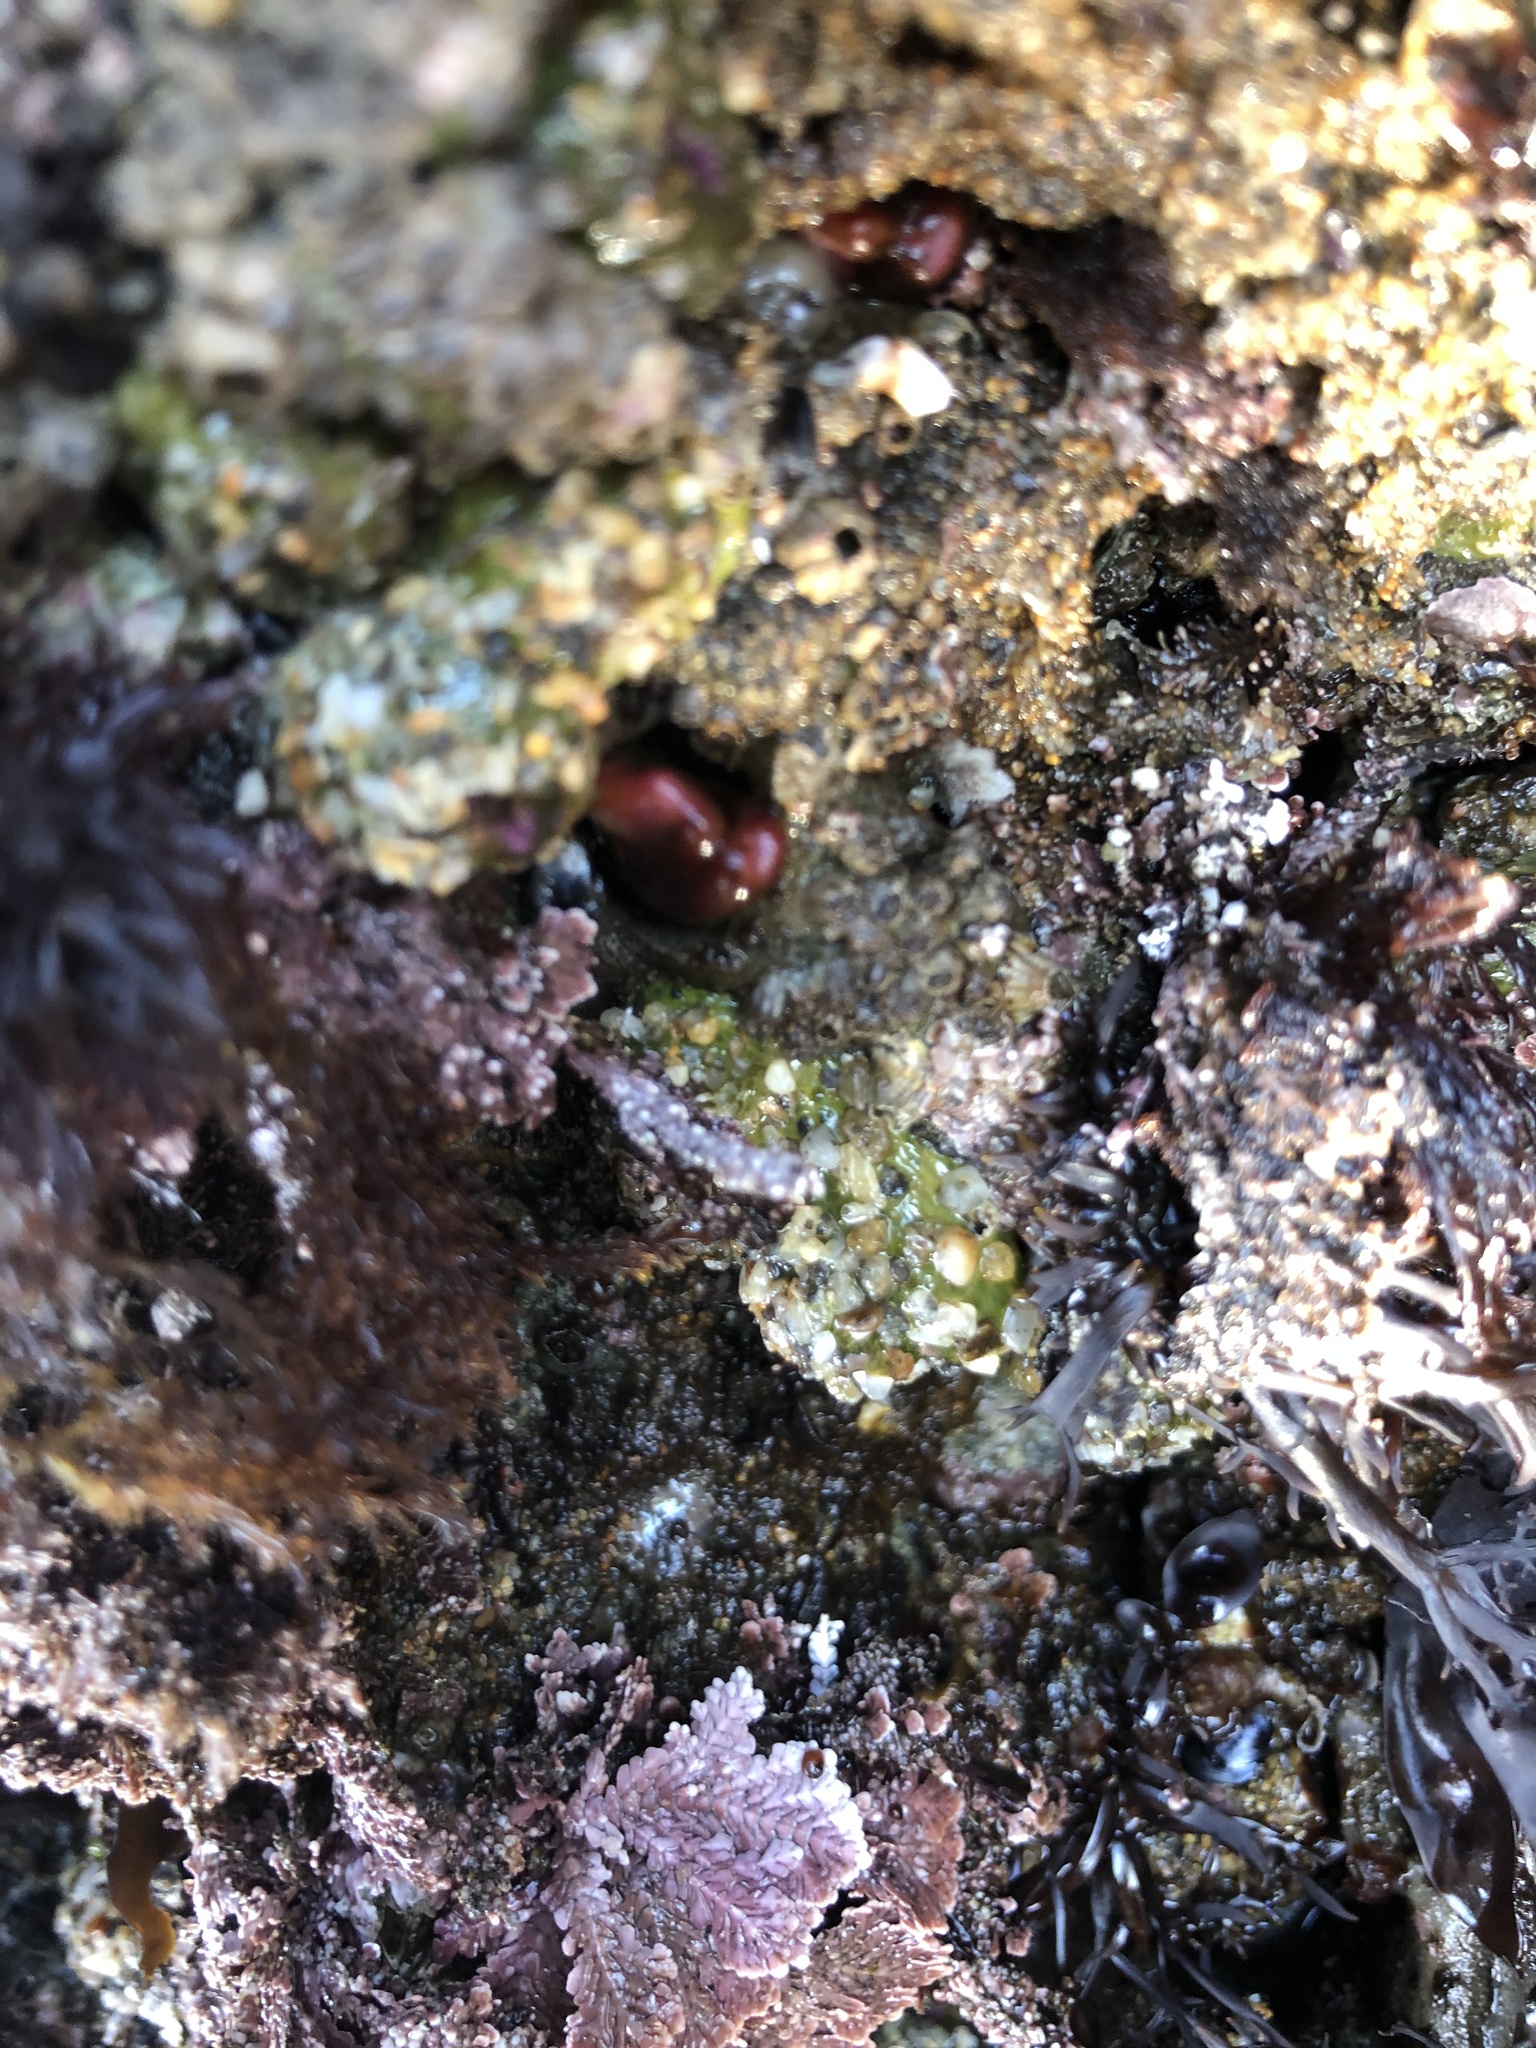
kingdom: Animalia
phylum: Mollusca
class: Bivalvia
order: Adapedonta
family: Hiatellidae
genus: Hiatella
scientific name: Hiatella arctica
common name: Arctic hiatella
